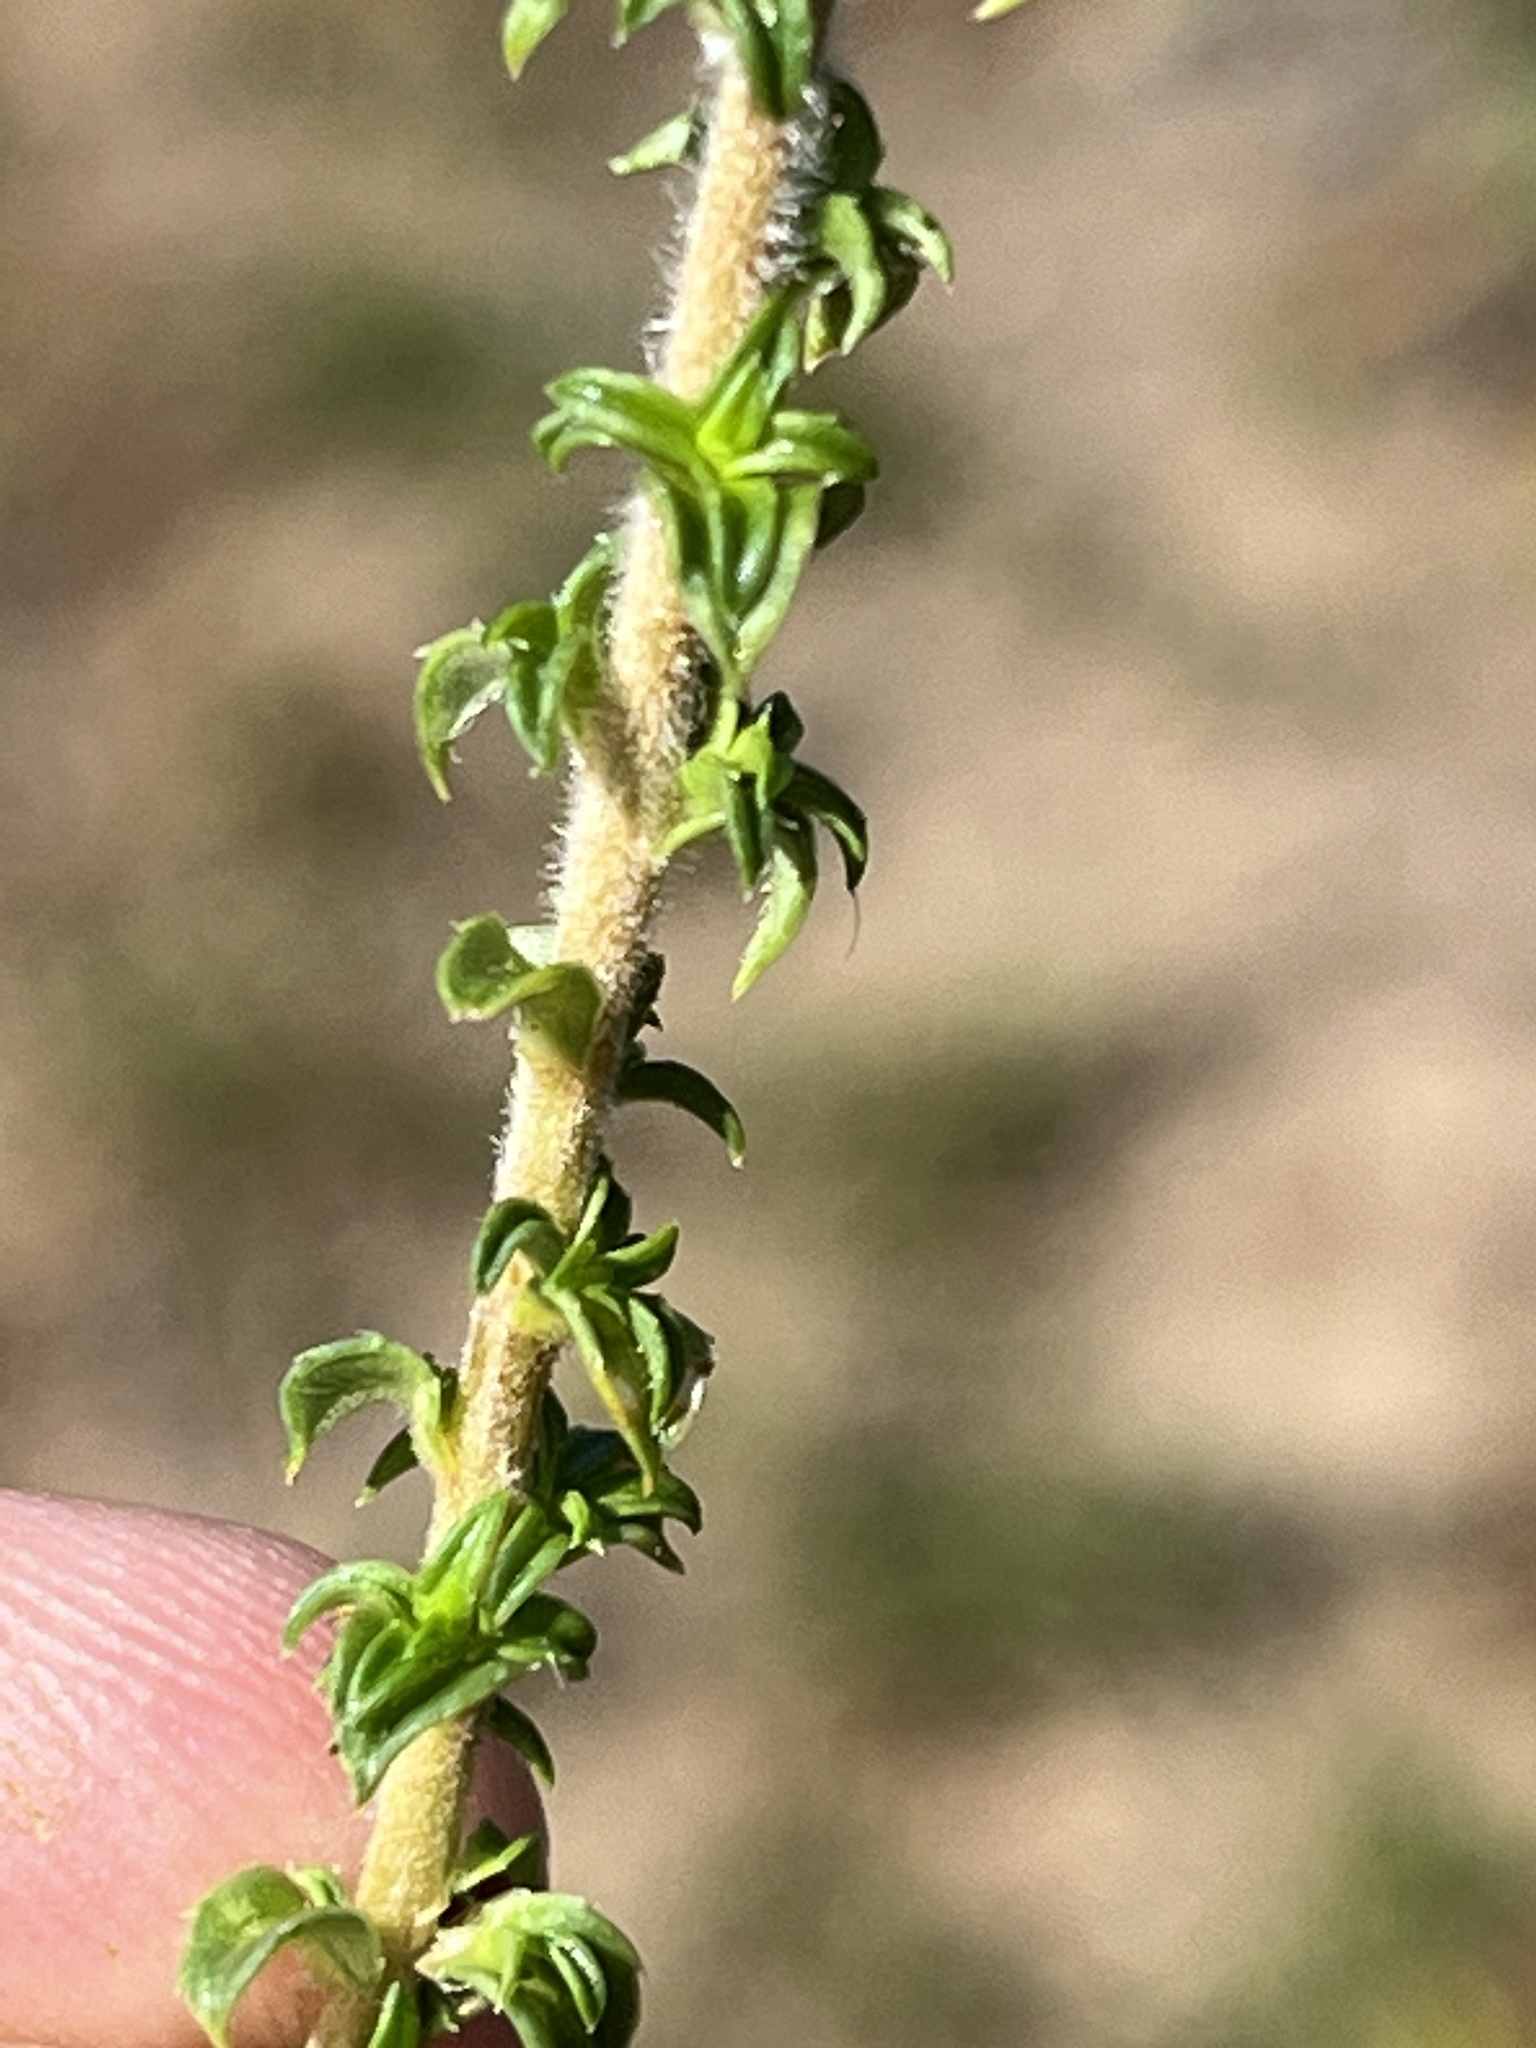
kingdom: Plantae
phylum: Tracheophyta
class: Magnoliopsida
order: Asterales
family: Campanulaceae
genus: Wahlenbergia
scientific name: Wahlenbergia desmantha
